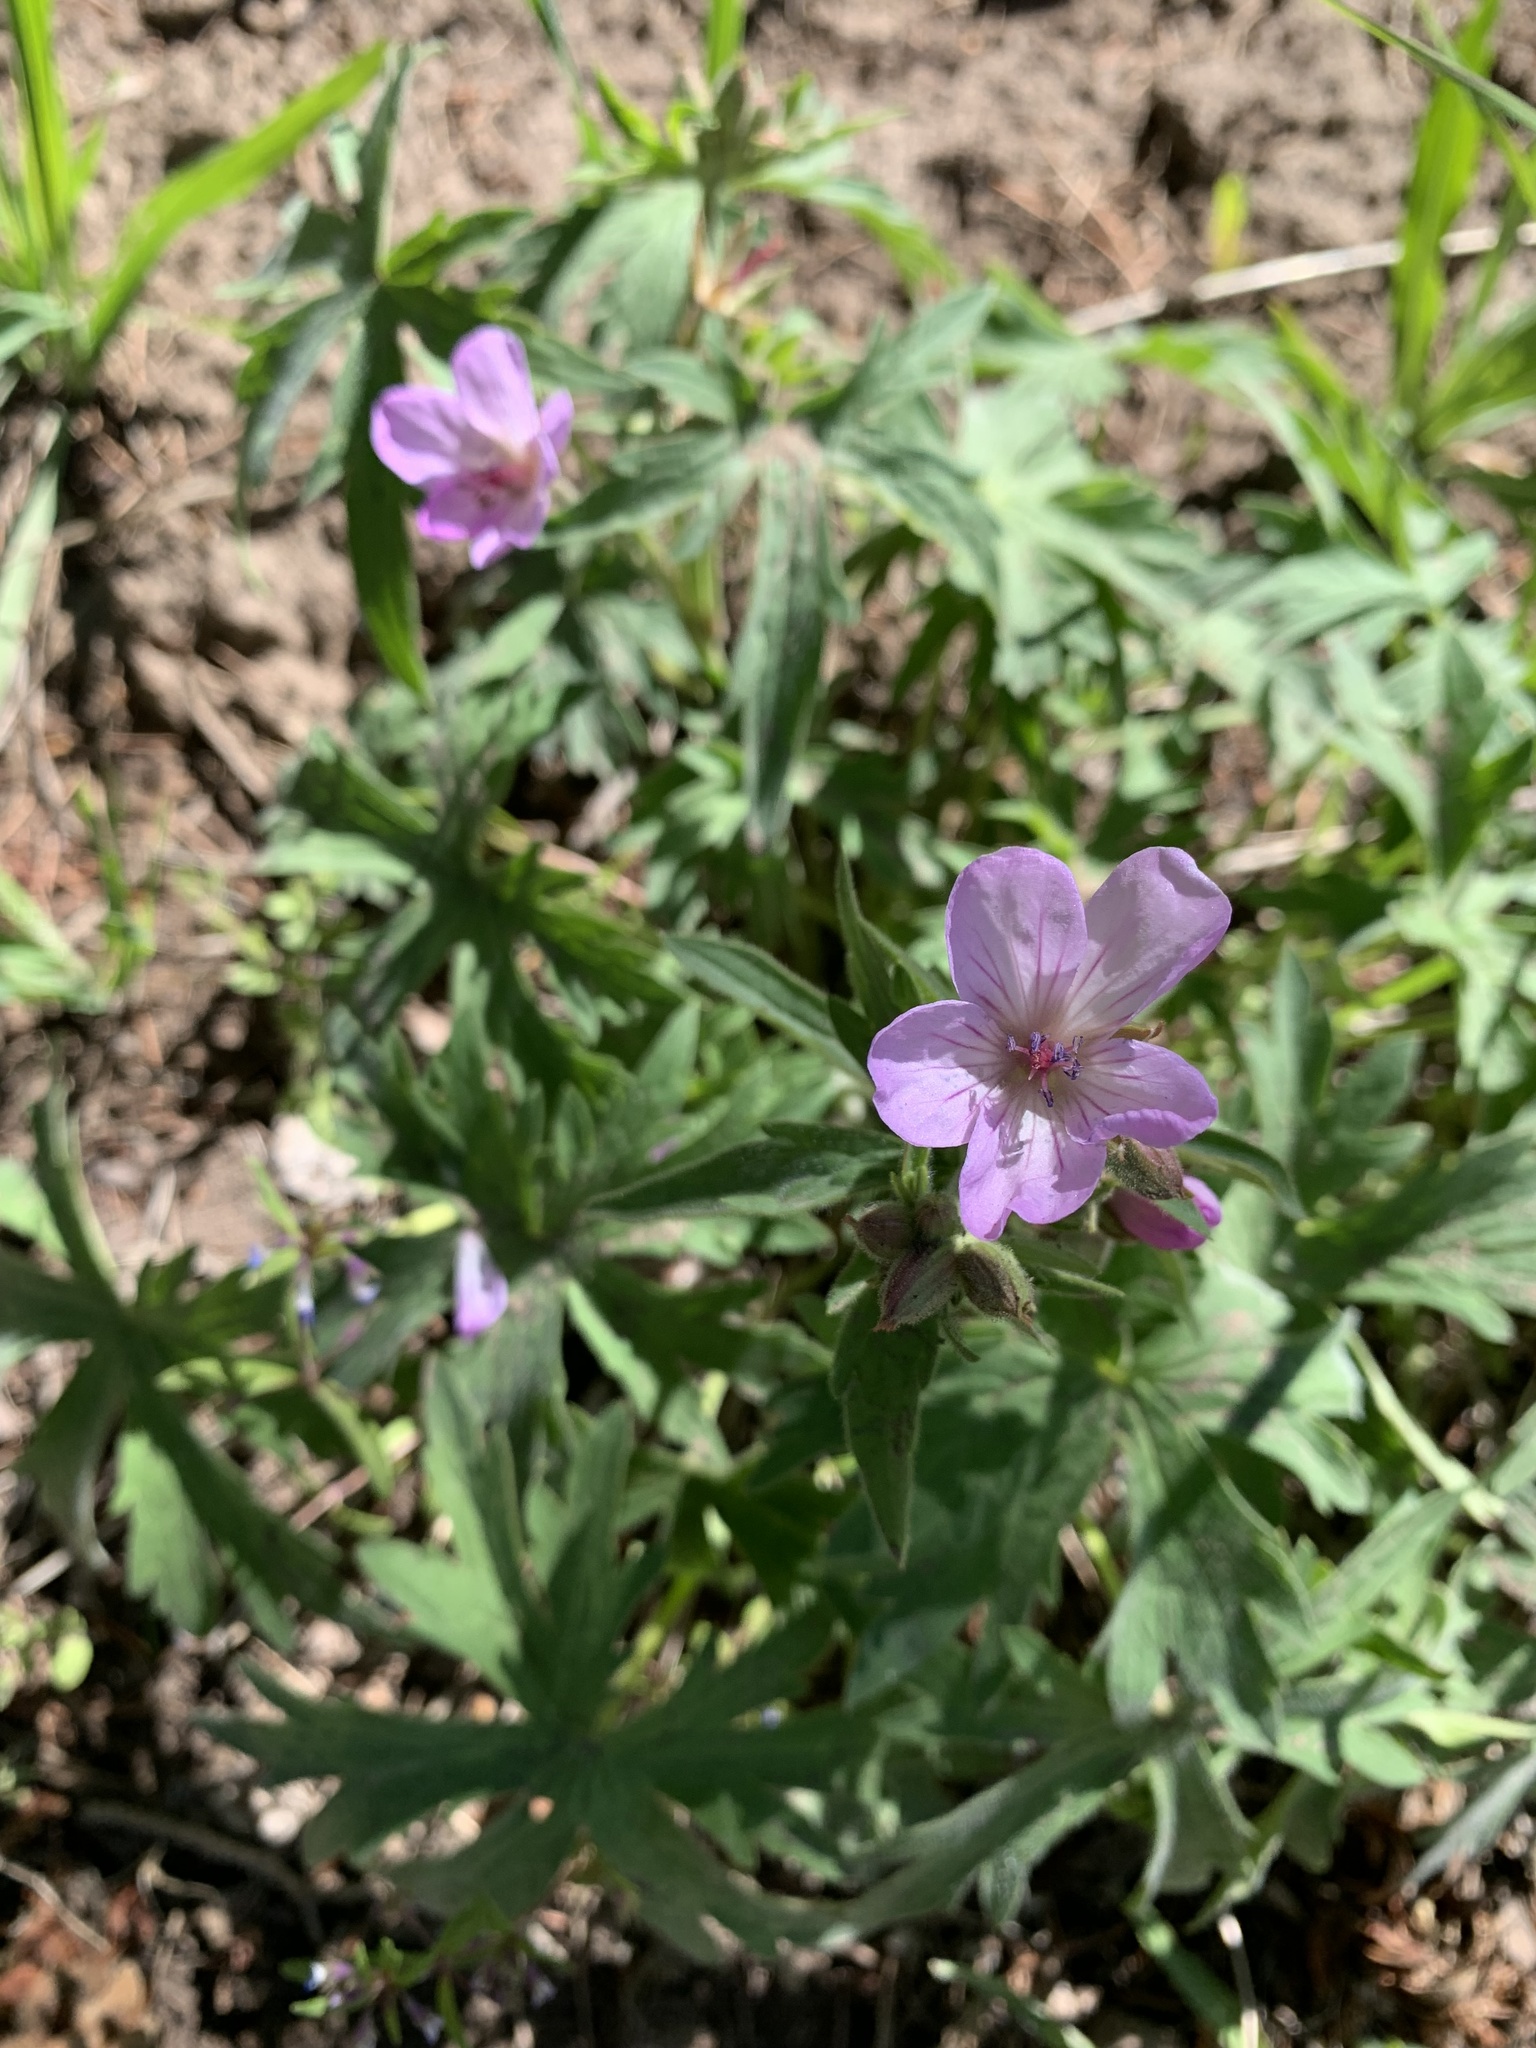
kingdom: Plantae
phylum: Tracheophyta
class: Magnoliopsida
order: Geraniales
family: Geraniaceae
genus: Geranium
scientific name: Geranium viscosissimum
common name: Purple geranium
